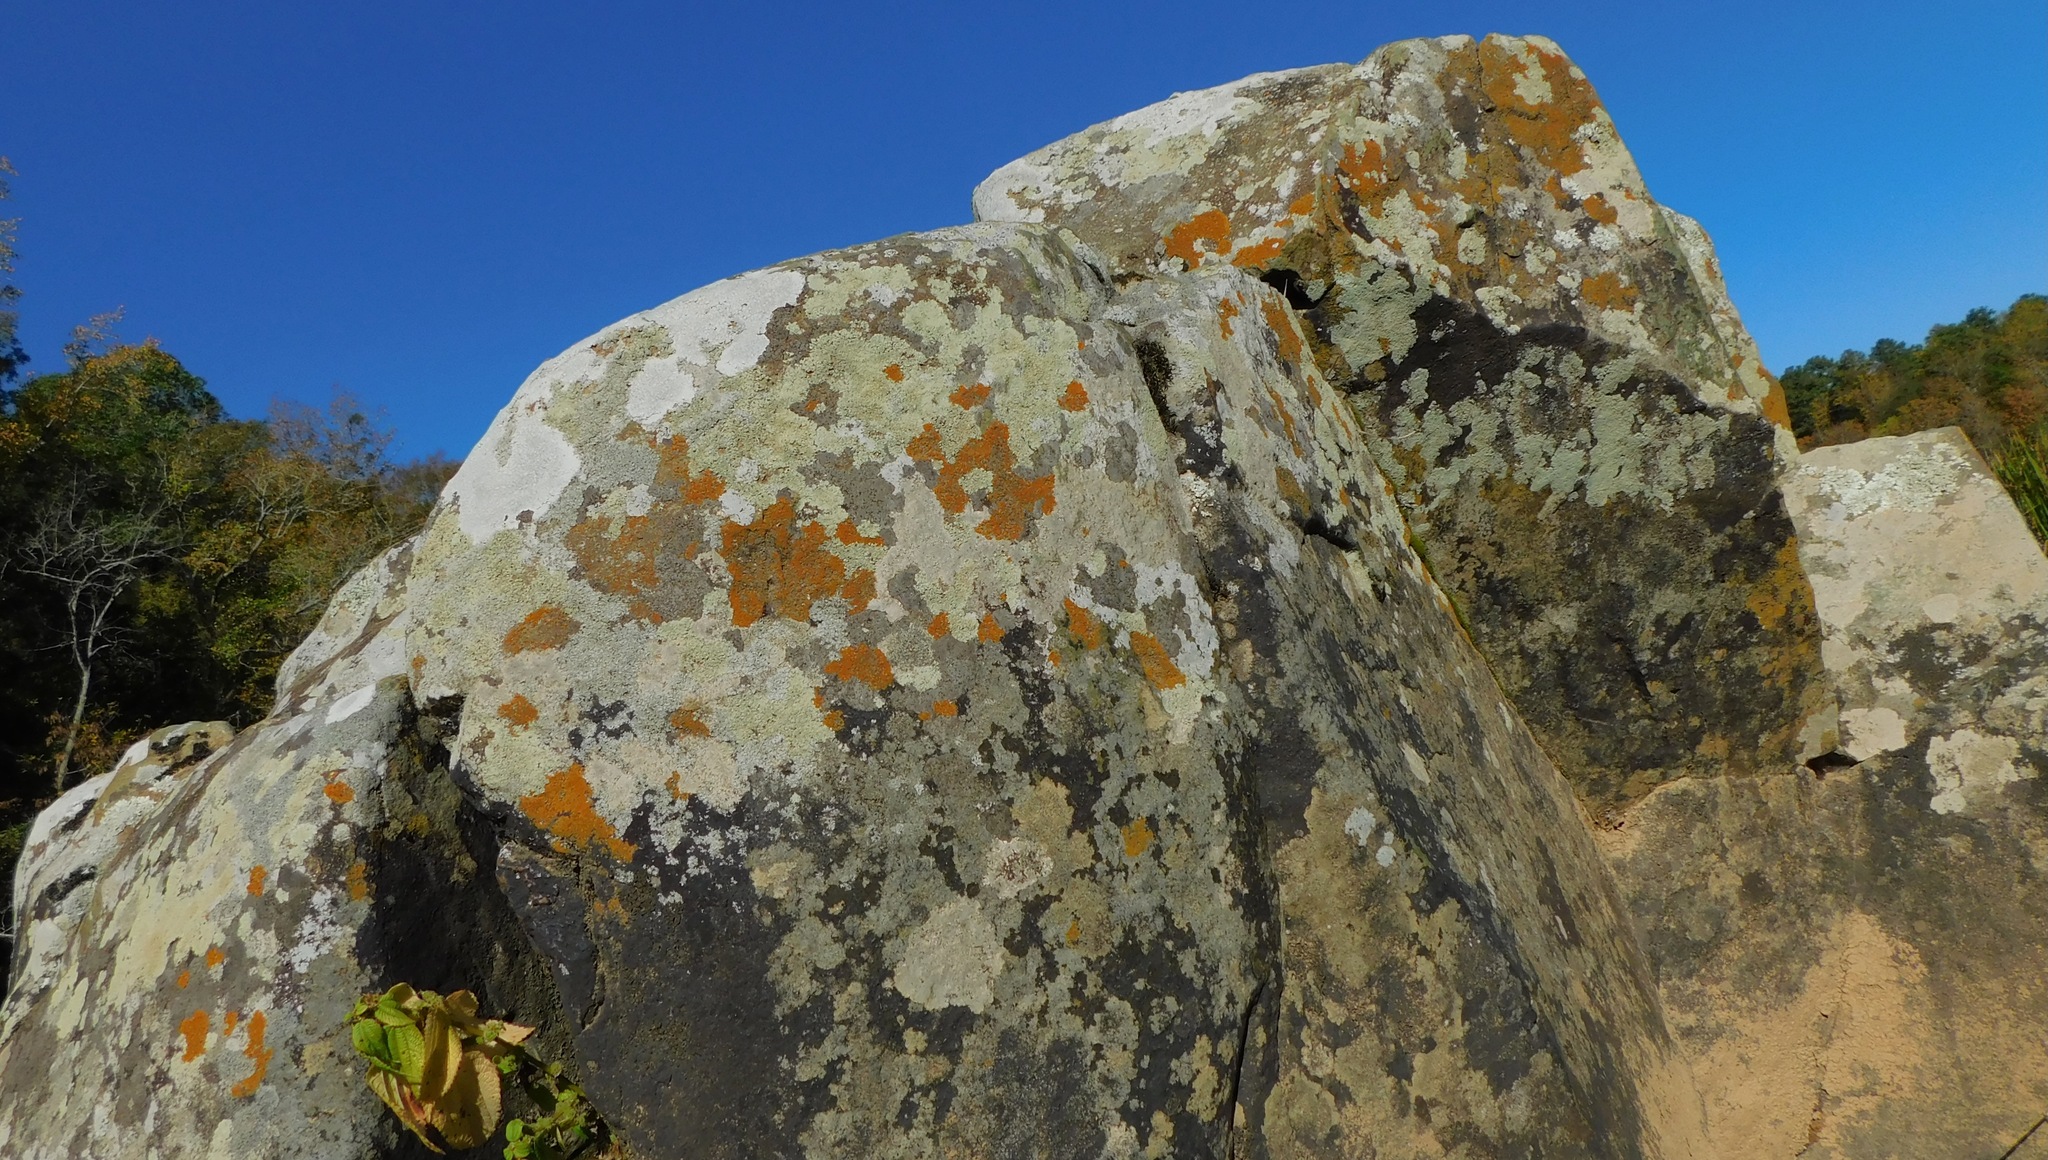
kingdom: Fungi
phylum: Ascomycota
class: Lecanoromycetes
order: Teloschistales
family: Teloschistaceae
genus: Squamulea
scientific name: Squamulea subsoluta
